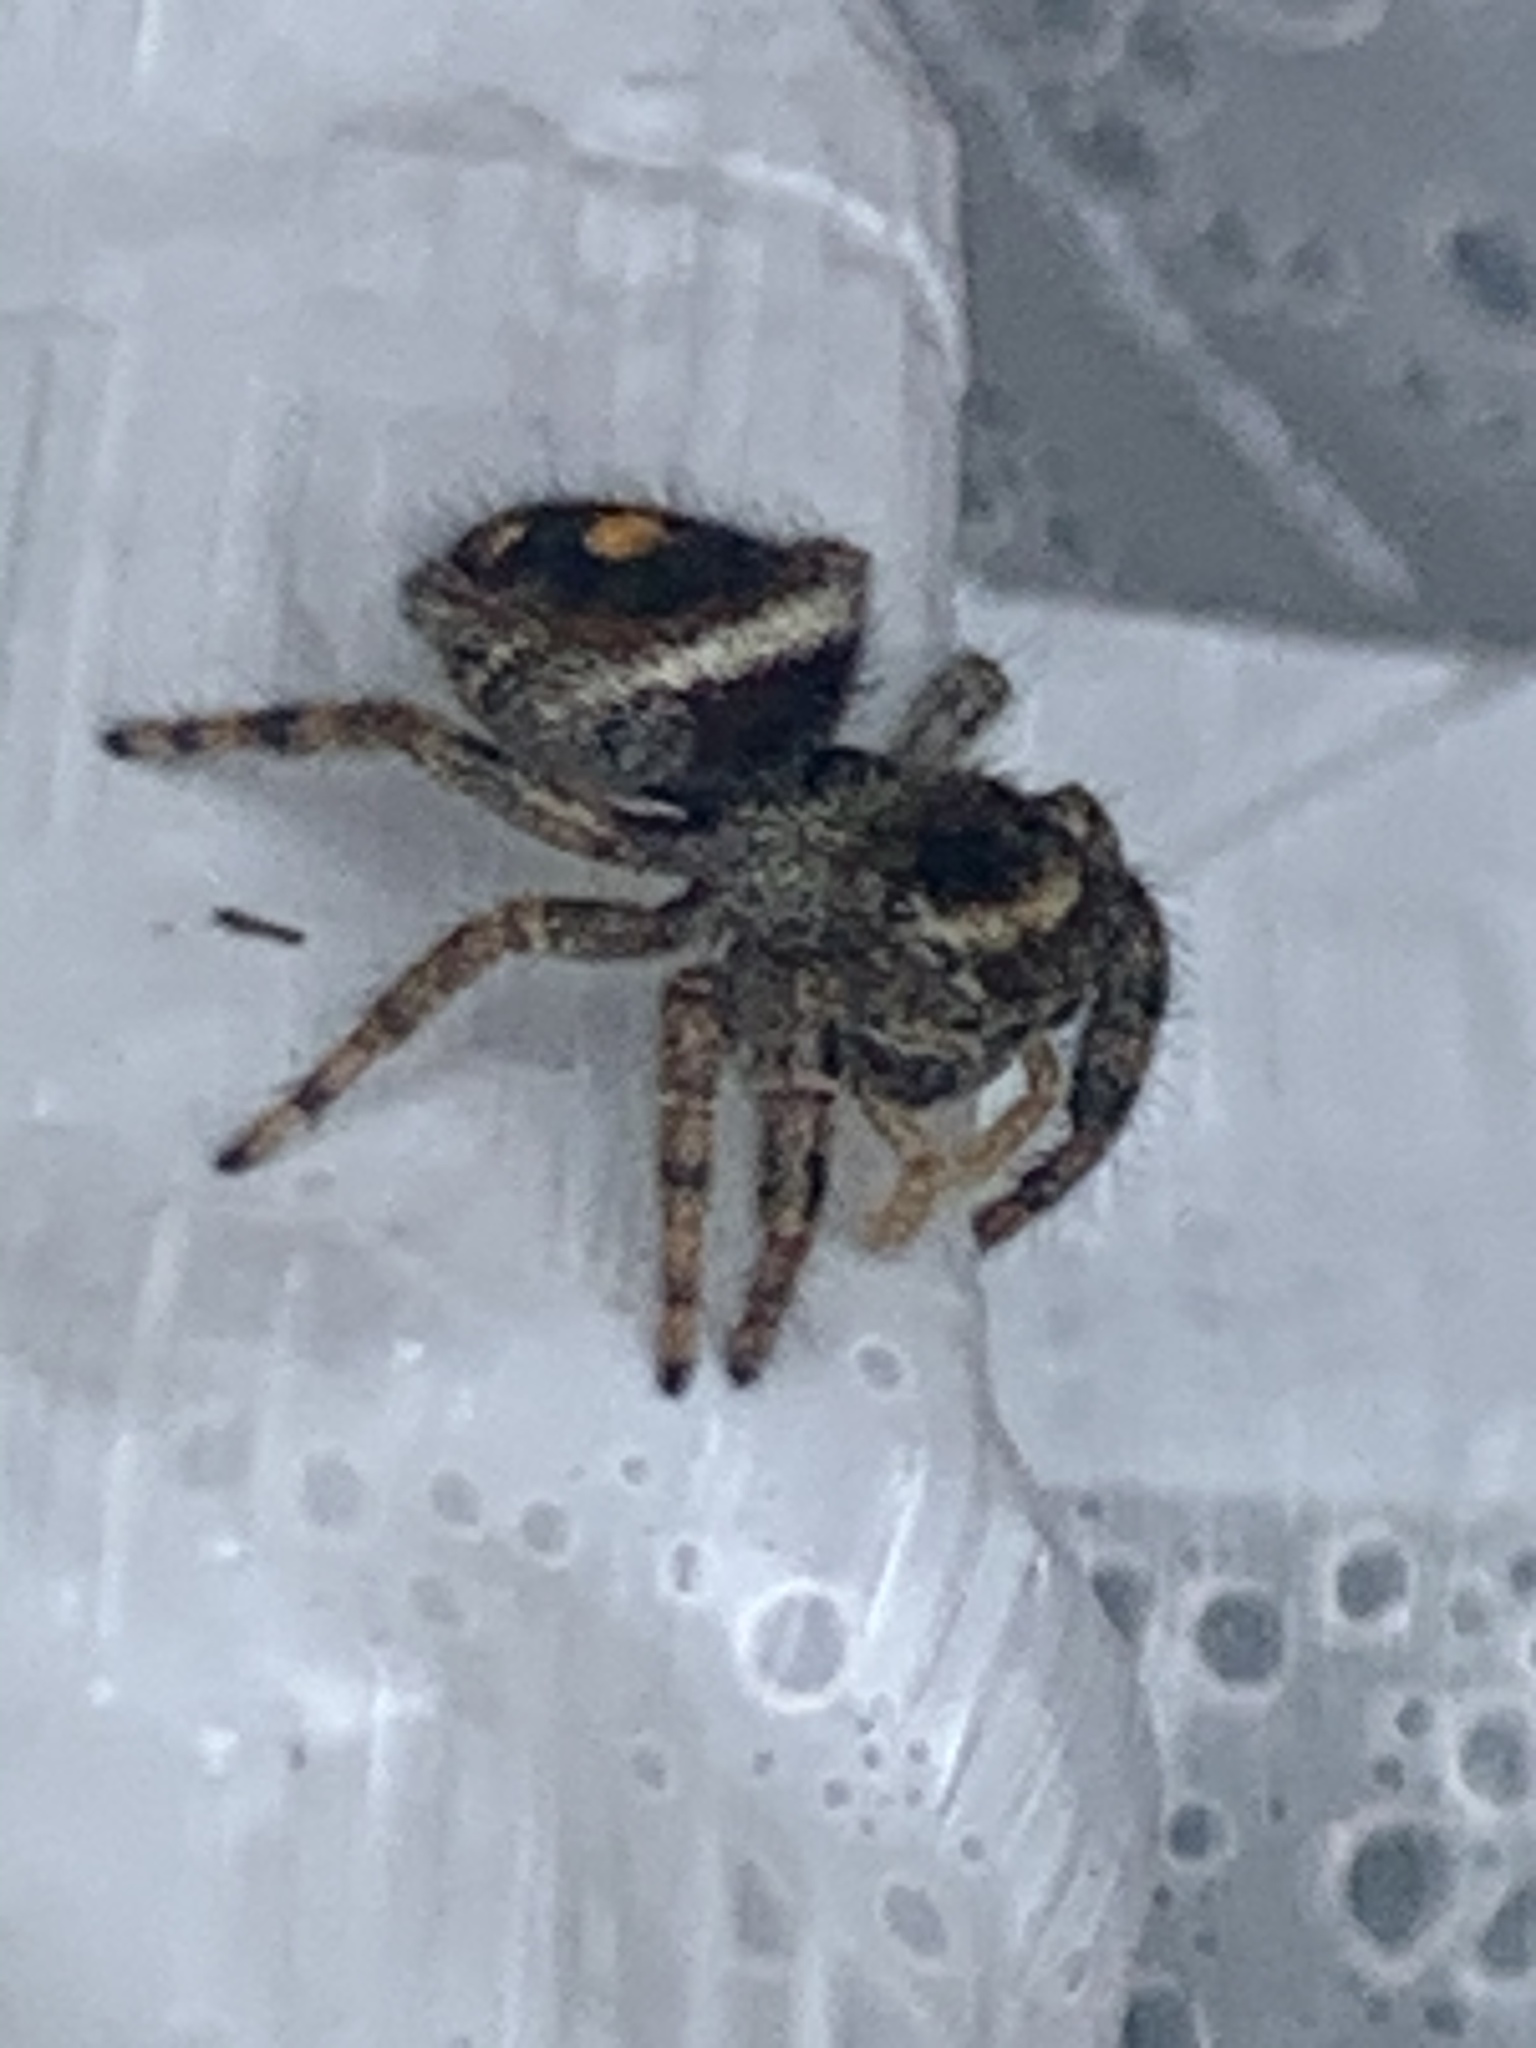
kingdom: Animalia
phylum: Arthropoda
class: Arachnida
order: Araneae
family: Salticidae
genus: Phidippus
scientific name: Phidippus audax
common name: Bold jumper
